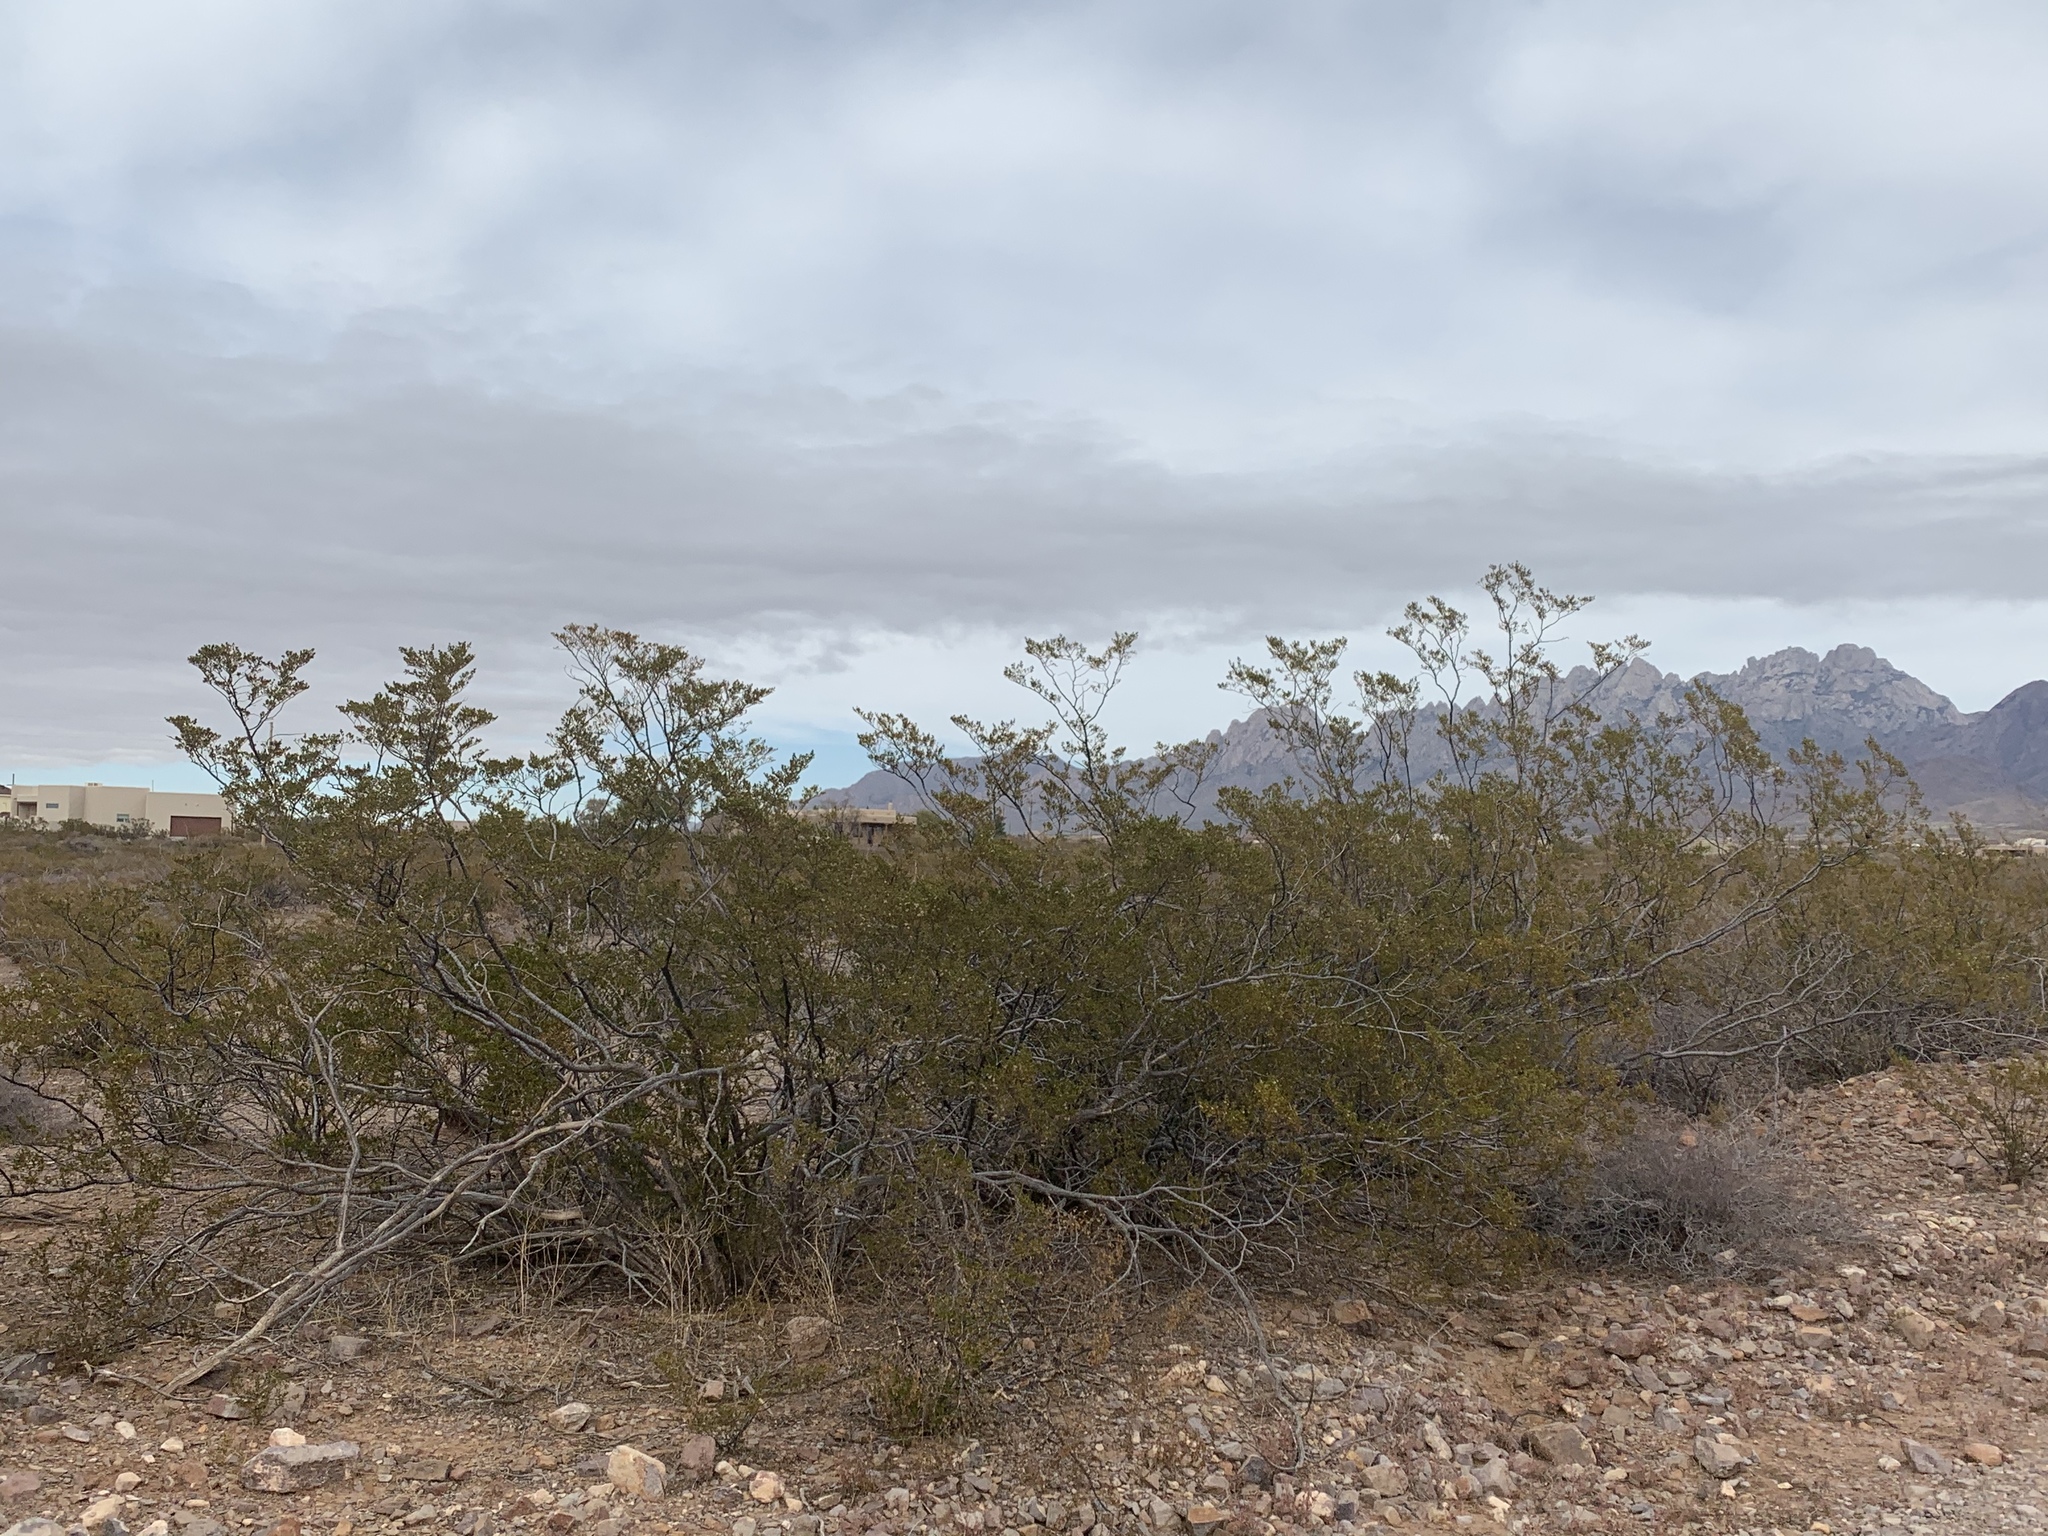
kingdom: Plantae
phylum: Tracheophyta
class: Magnoliopsida
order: Zygophyllales
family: Zygophyllaceae
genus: Larrea
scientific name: Larrea tridentata
